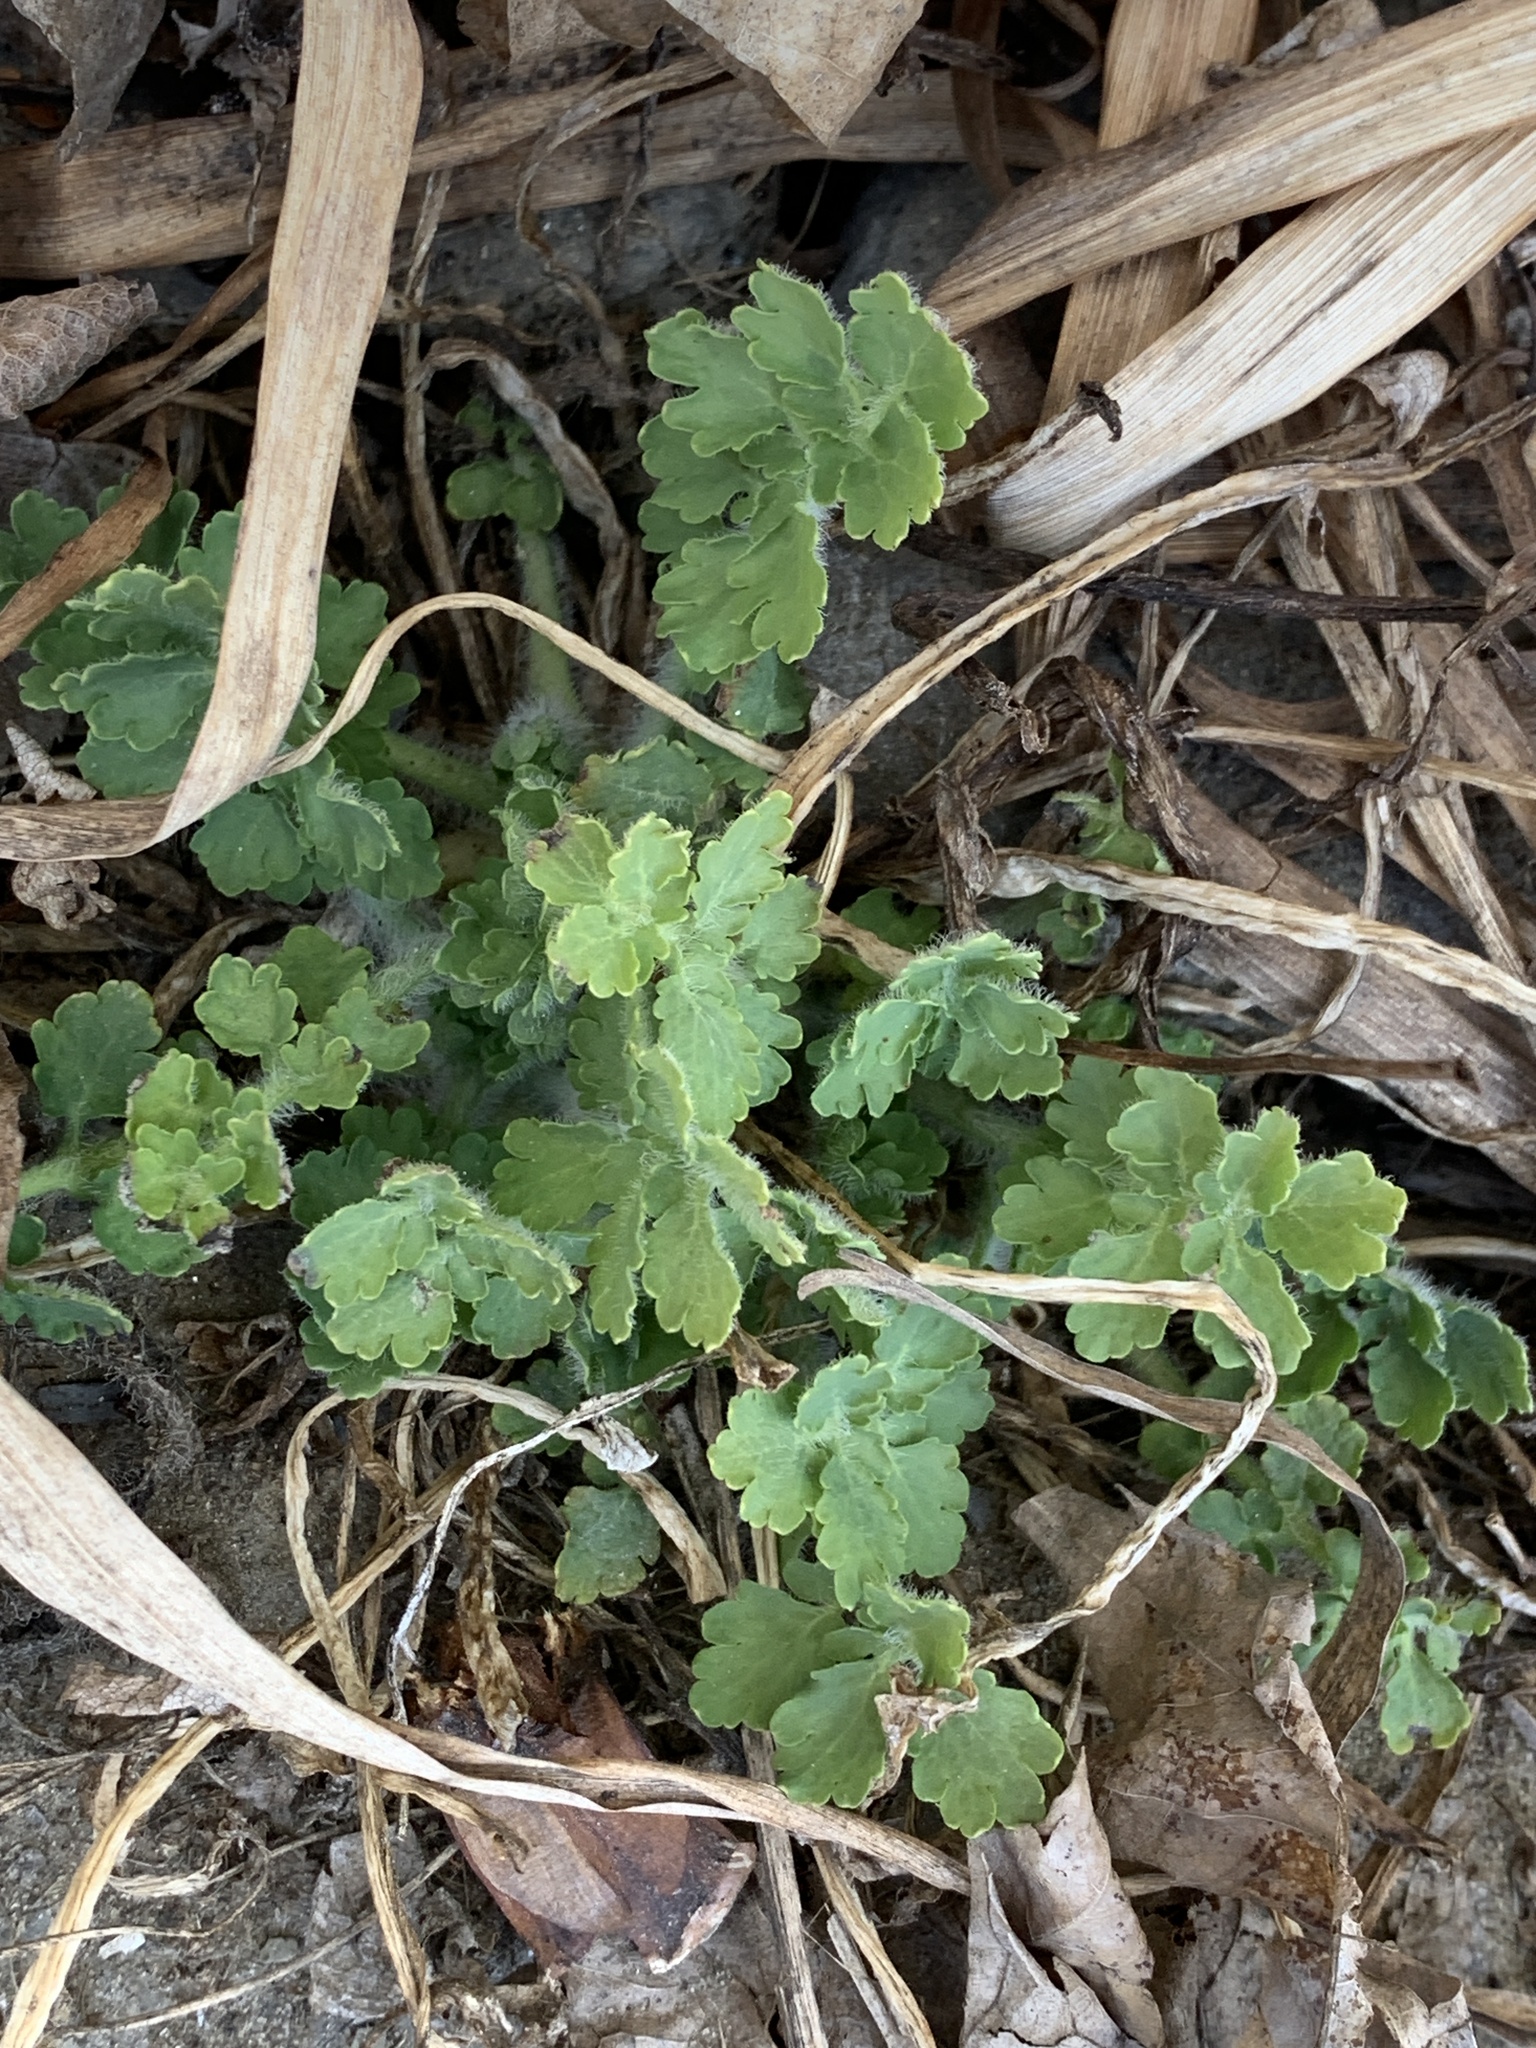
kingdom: Plantae
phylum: Tracheophyta
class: Magnoliopsida
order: Ranunculales
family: Papaveraceae
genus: Chelidonium
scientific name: Chelidonium majus
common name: Greater celandine
